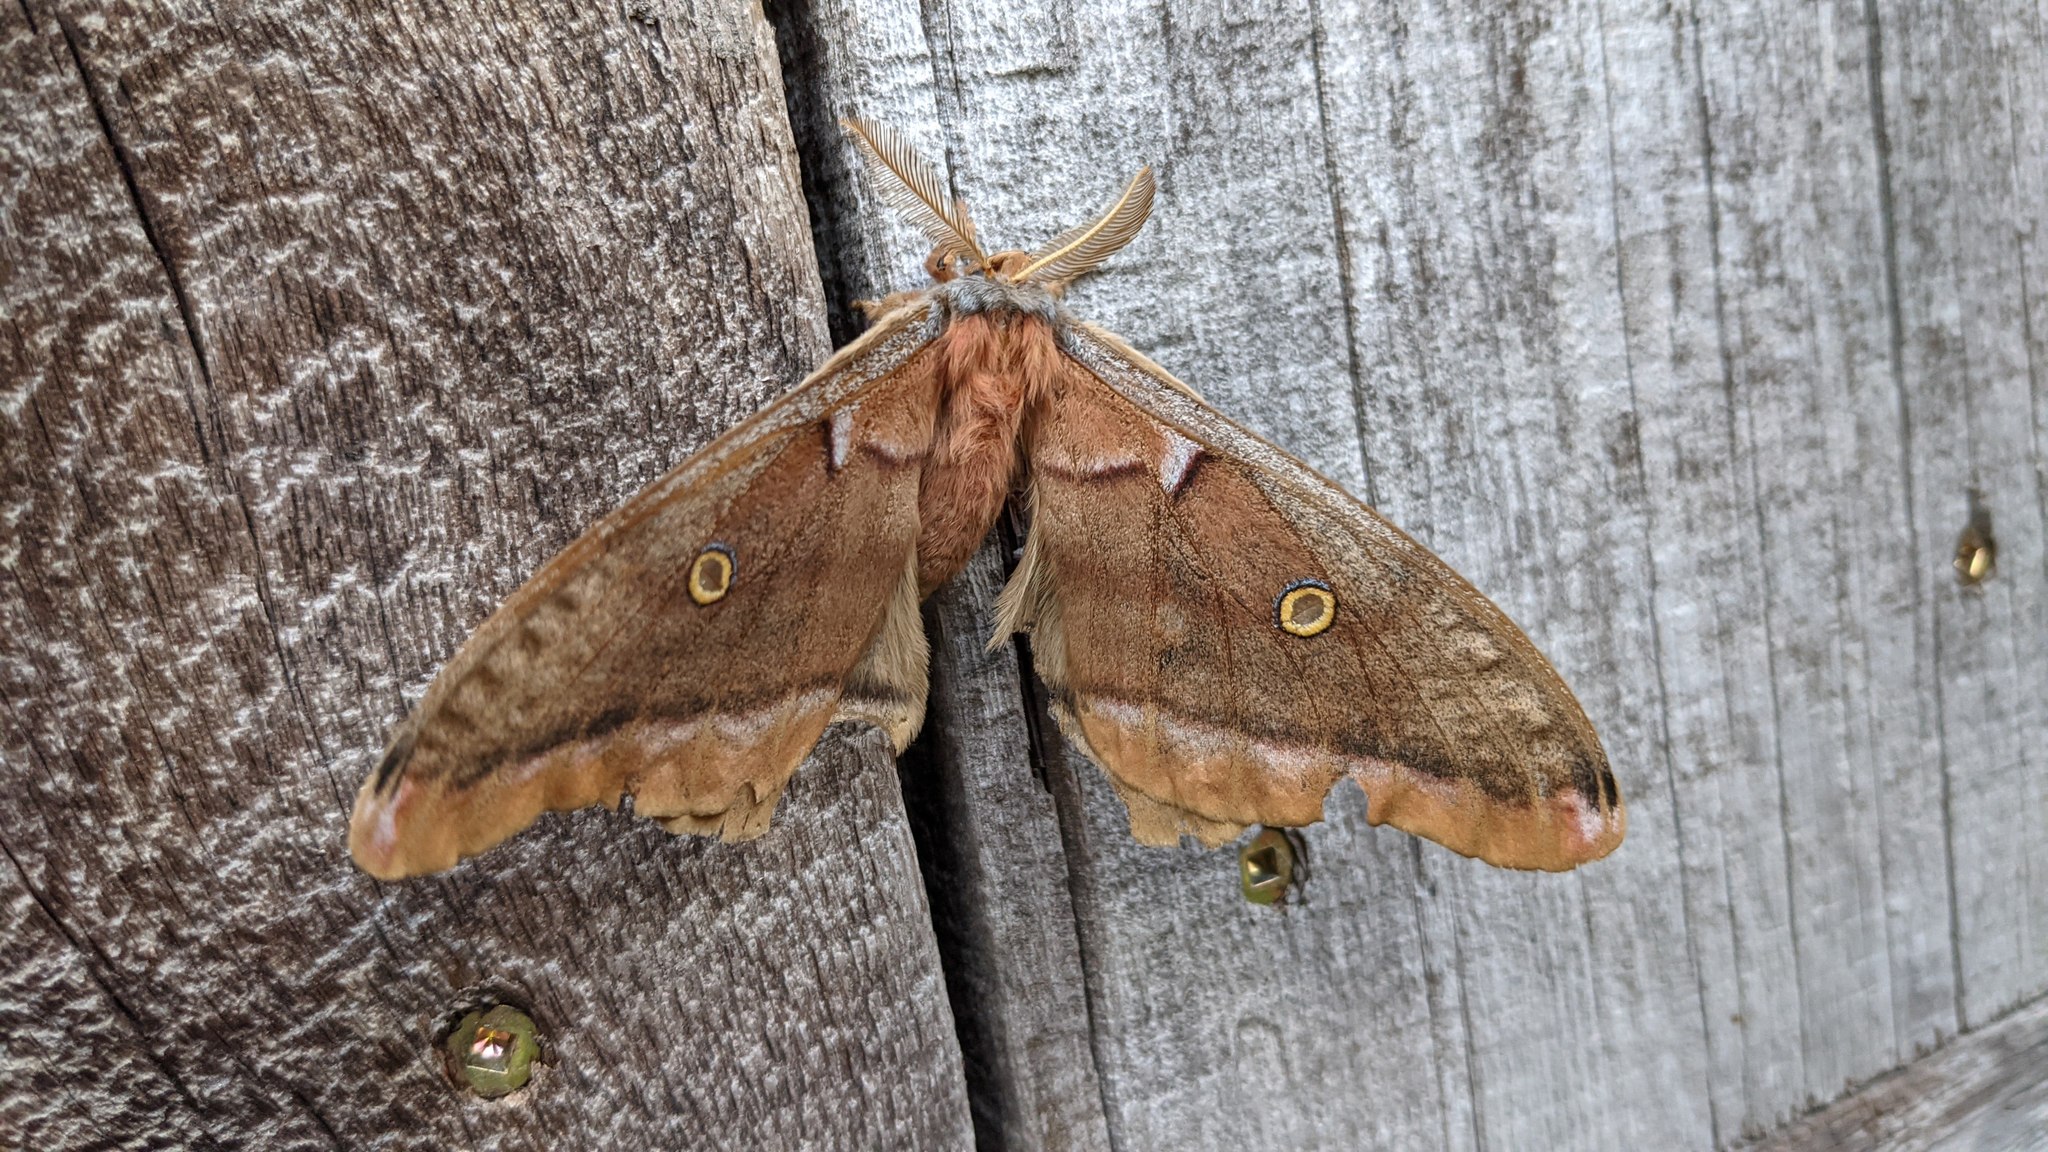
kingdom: Animalia
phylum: Arthropoda
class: Insecta
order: Lepidoptera
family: Saturniidae
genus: Antheraea
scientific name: Antheraea polyphemus
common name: Polyphemus moth
